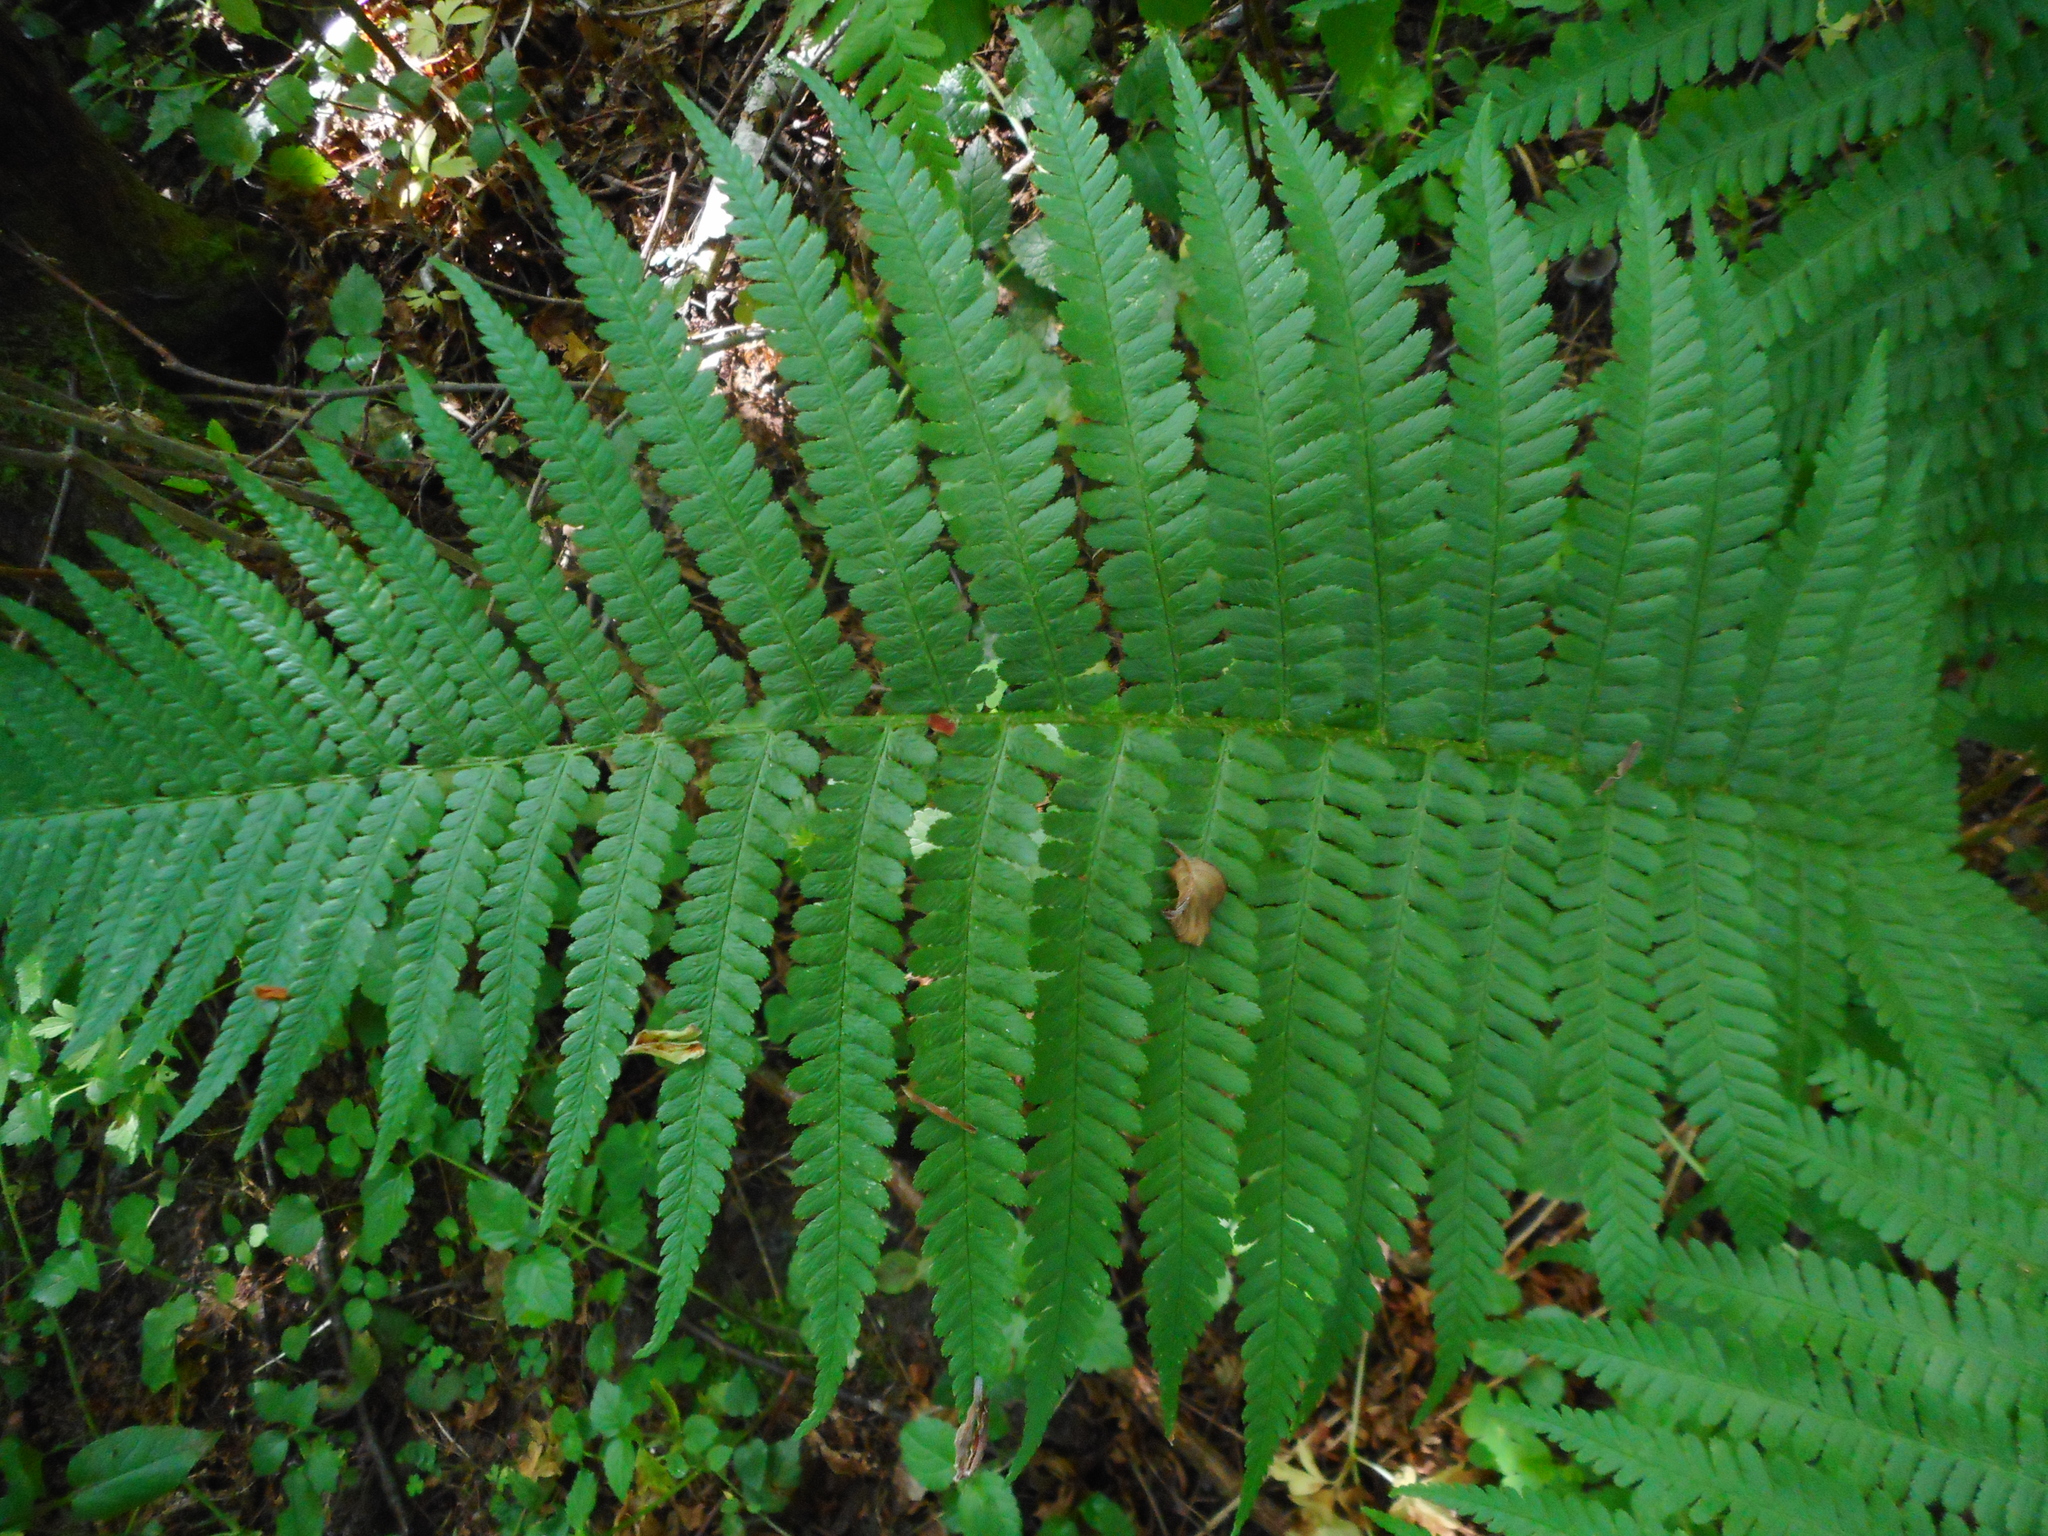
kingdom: Plantae
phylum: Tracheophyta
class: Polypodiopsida
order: Polypodiales
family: Dryopteridaceae
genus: Dryopteris
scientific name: Dryopteris filix-mas
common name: Male fern
